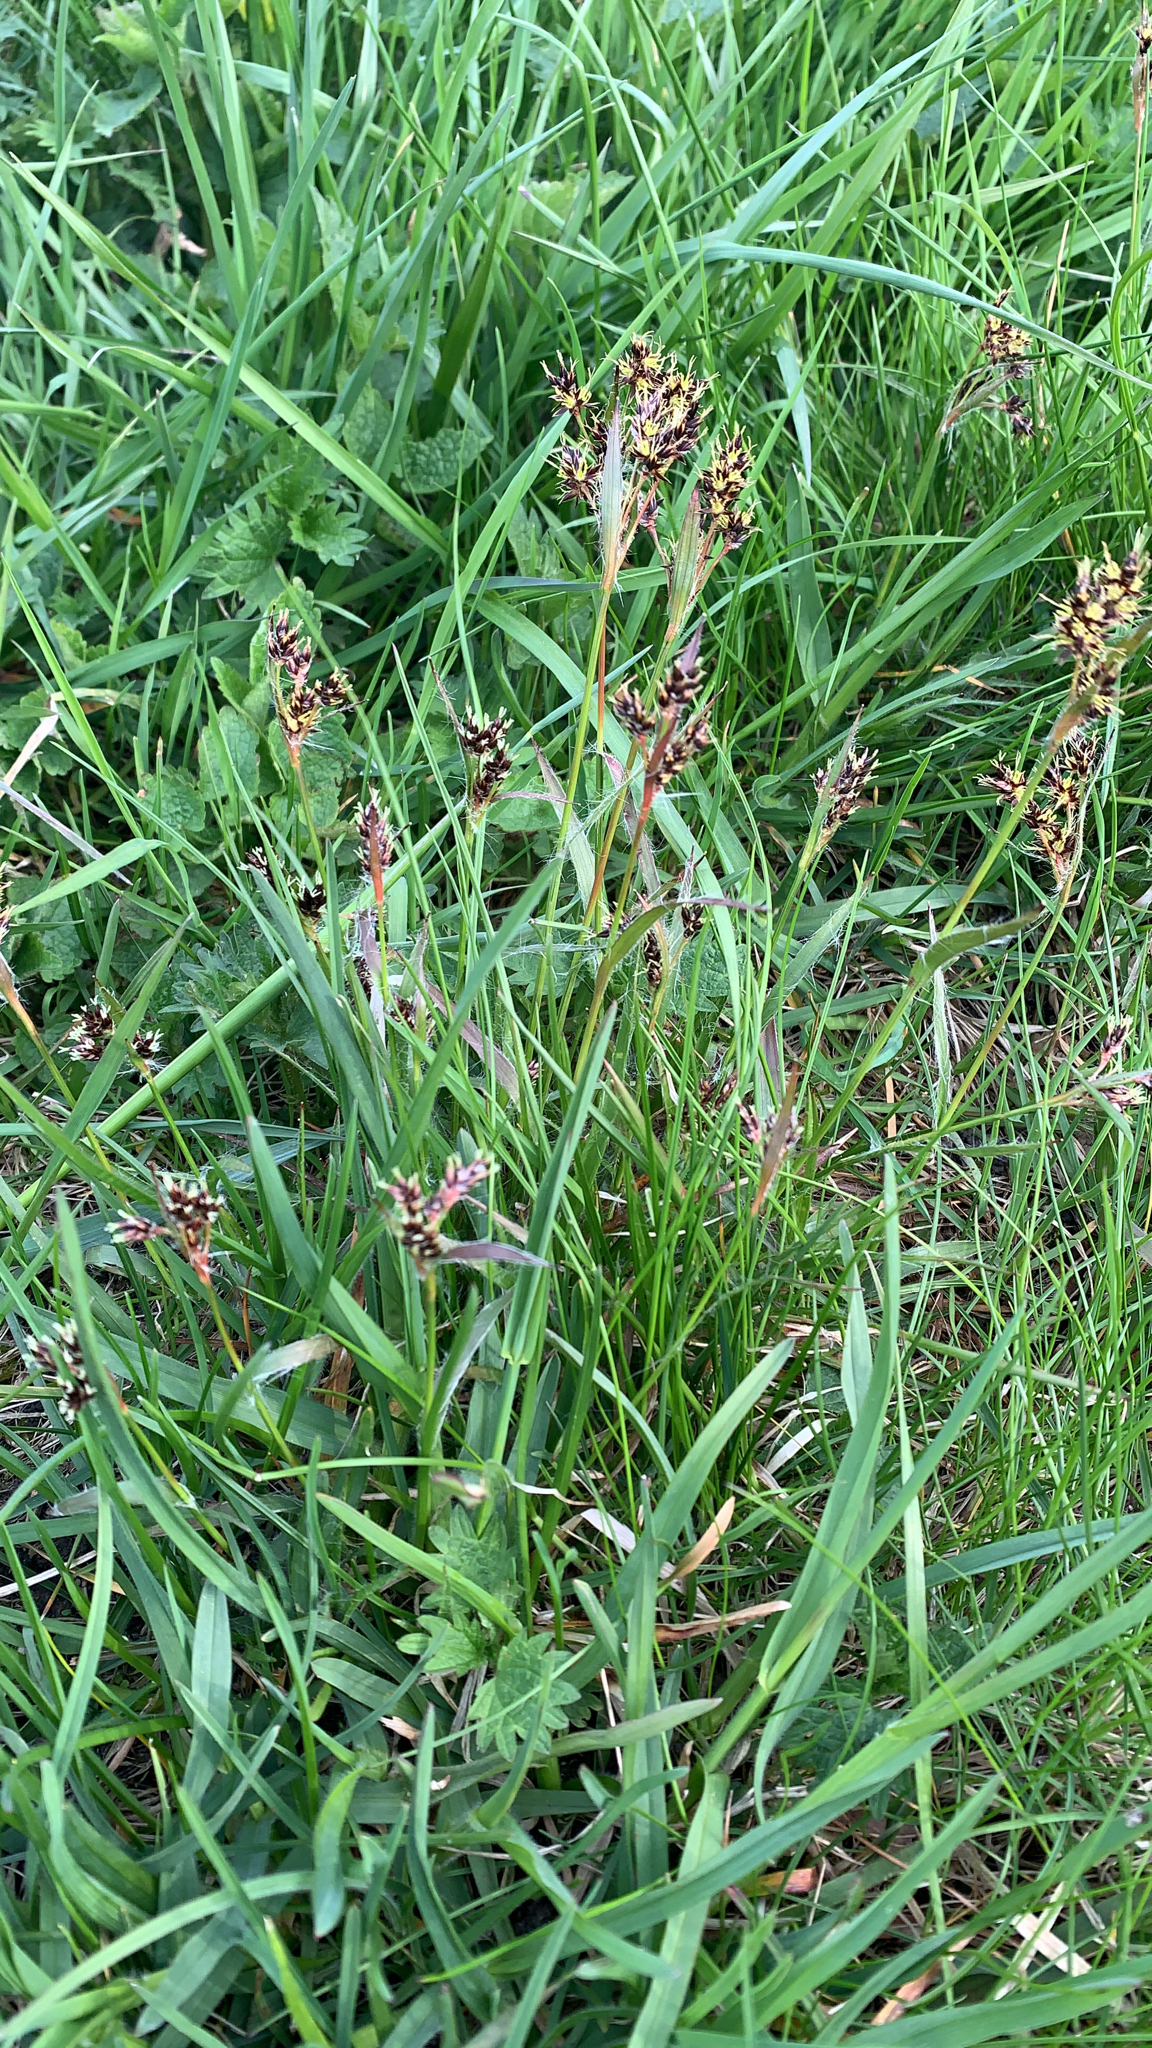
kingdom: Plantae
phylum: Tracheophyta
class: Liliopsida
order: Poales
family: Juncaceae
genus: Luzula
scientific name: Luzula campestris
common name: Field wood-rush
